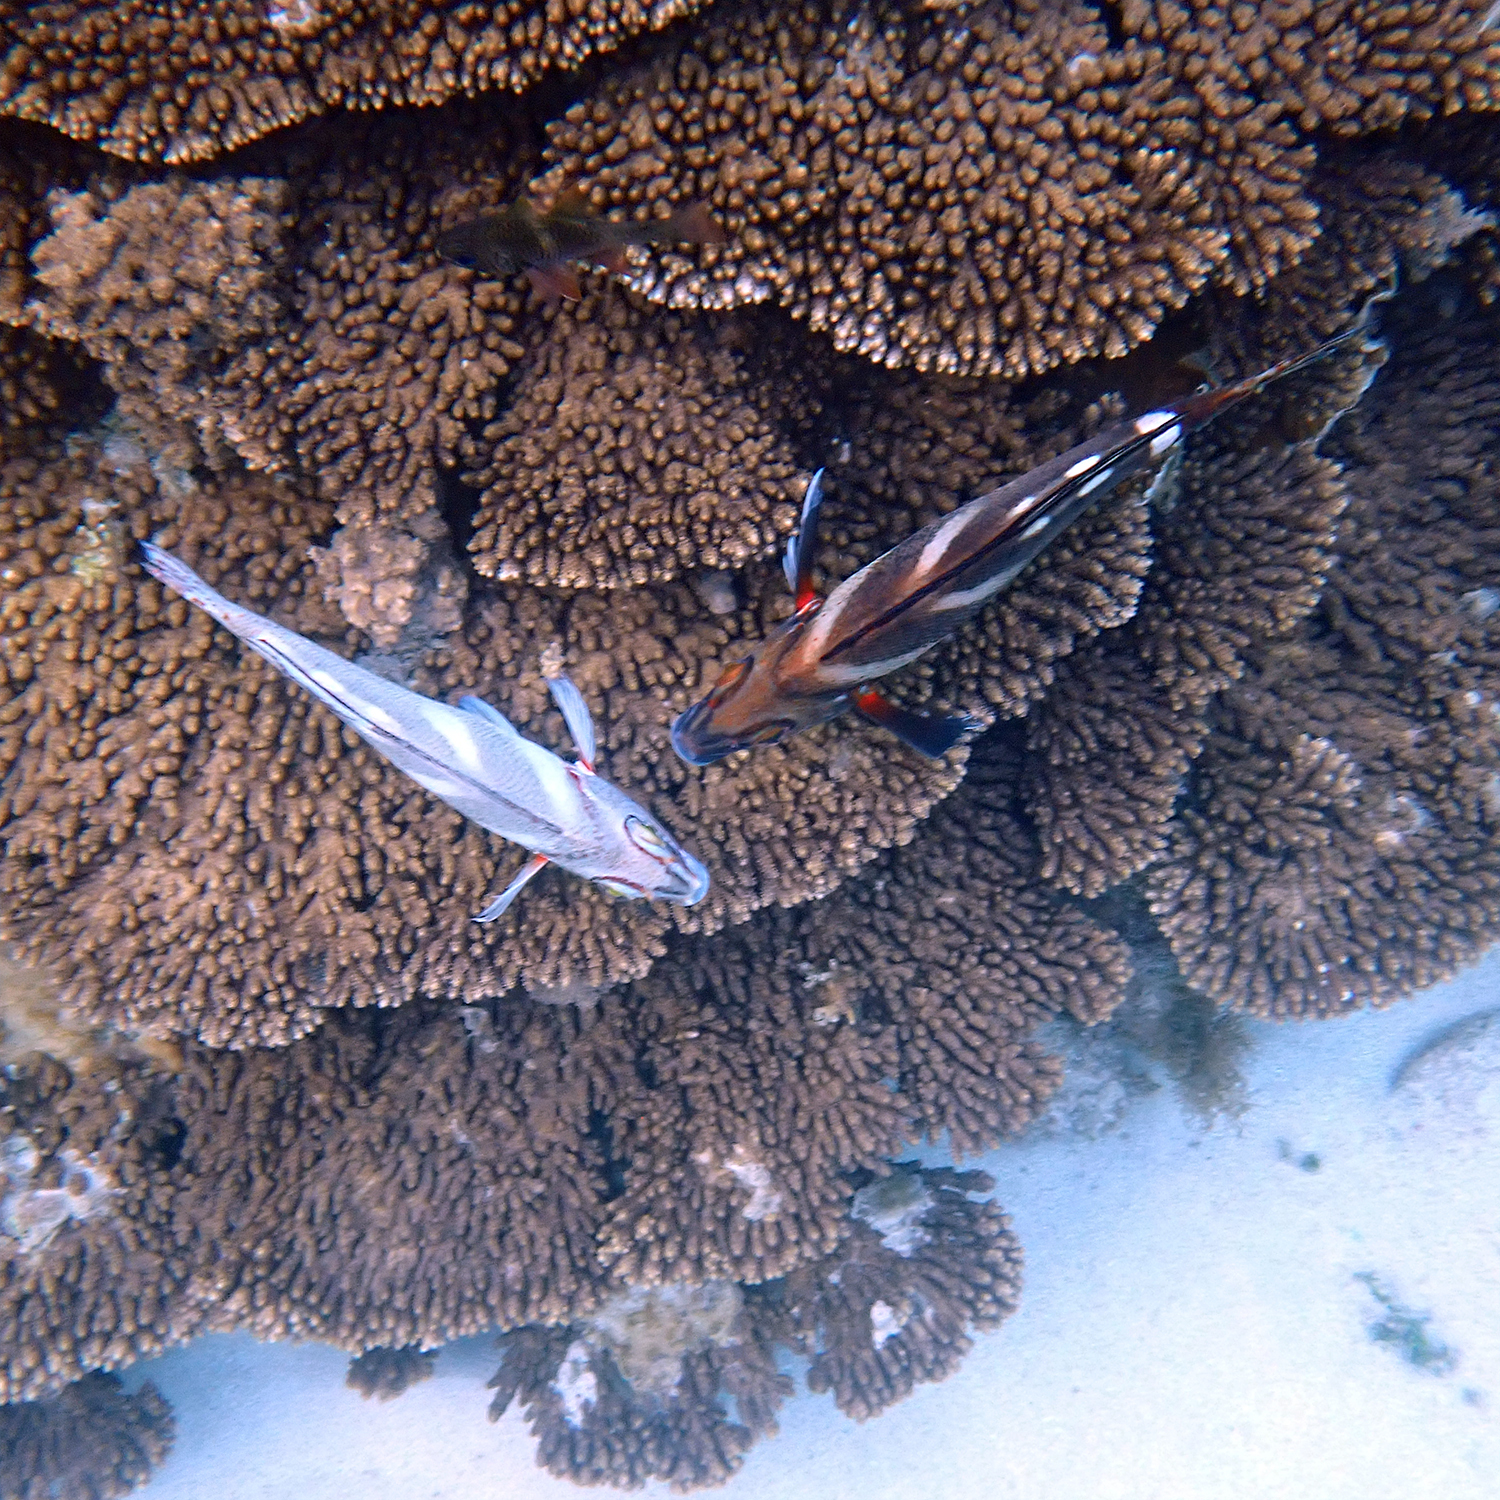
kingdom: Animalia
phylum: Chordata
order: Perciformes
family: Latridae
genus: Morwong
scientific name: Morwong ephippium
